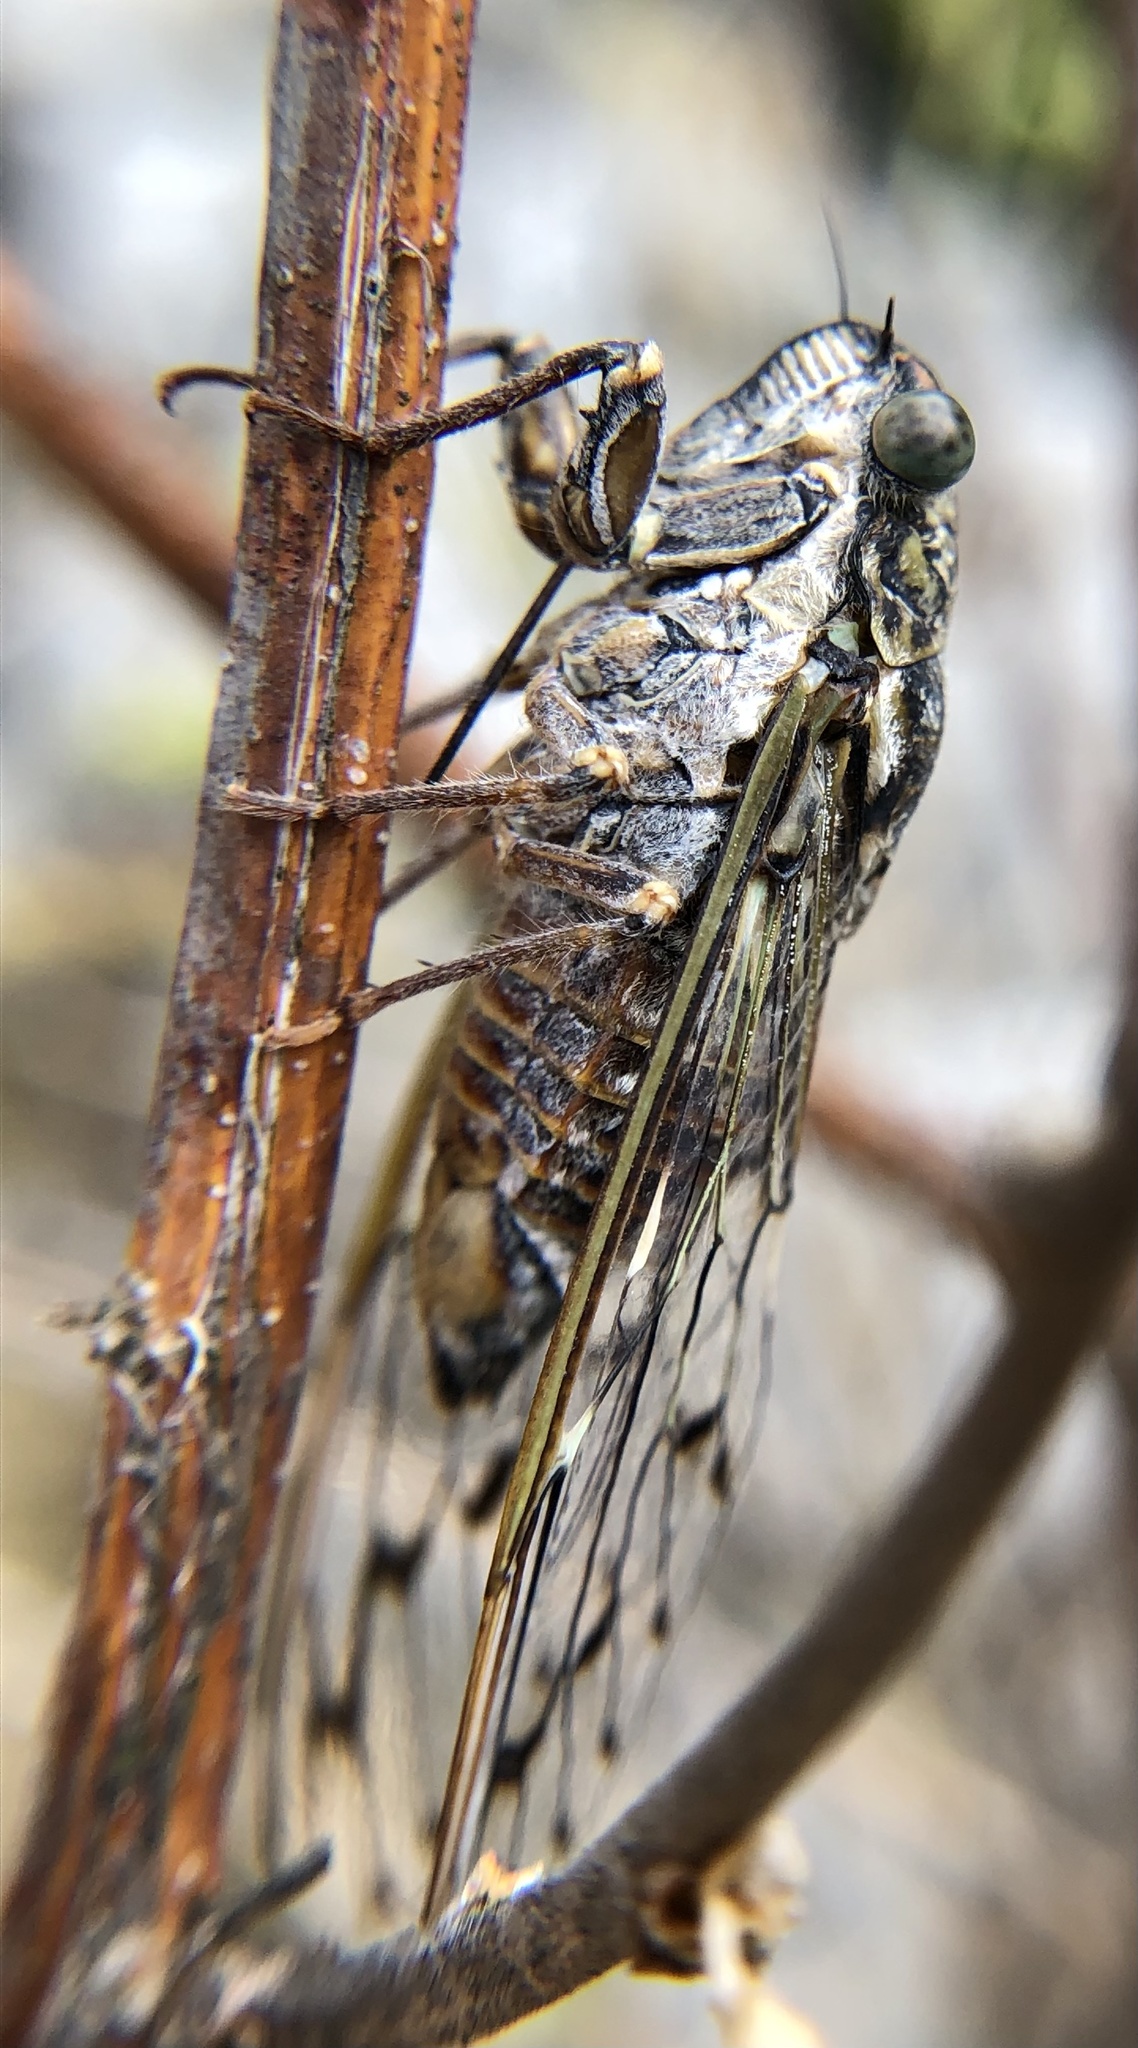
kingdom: Animalia
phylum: Arthropoda
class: Insecta
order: Hemiptera
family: Cicadidae
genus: Cicada
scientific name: Cicada orni
